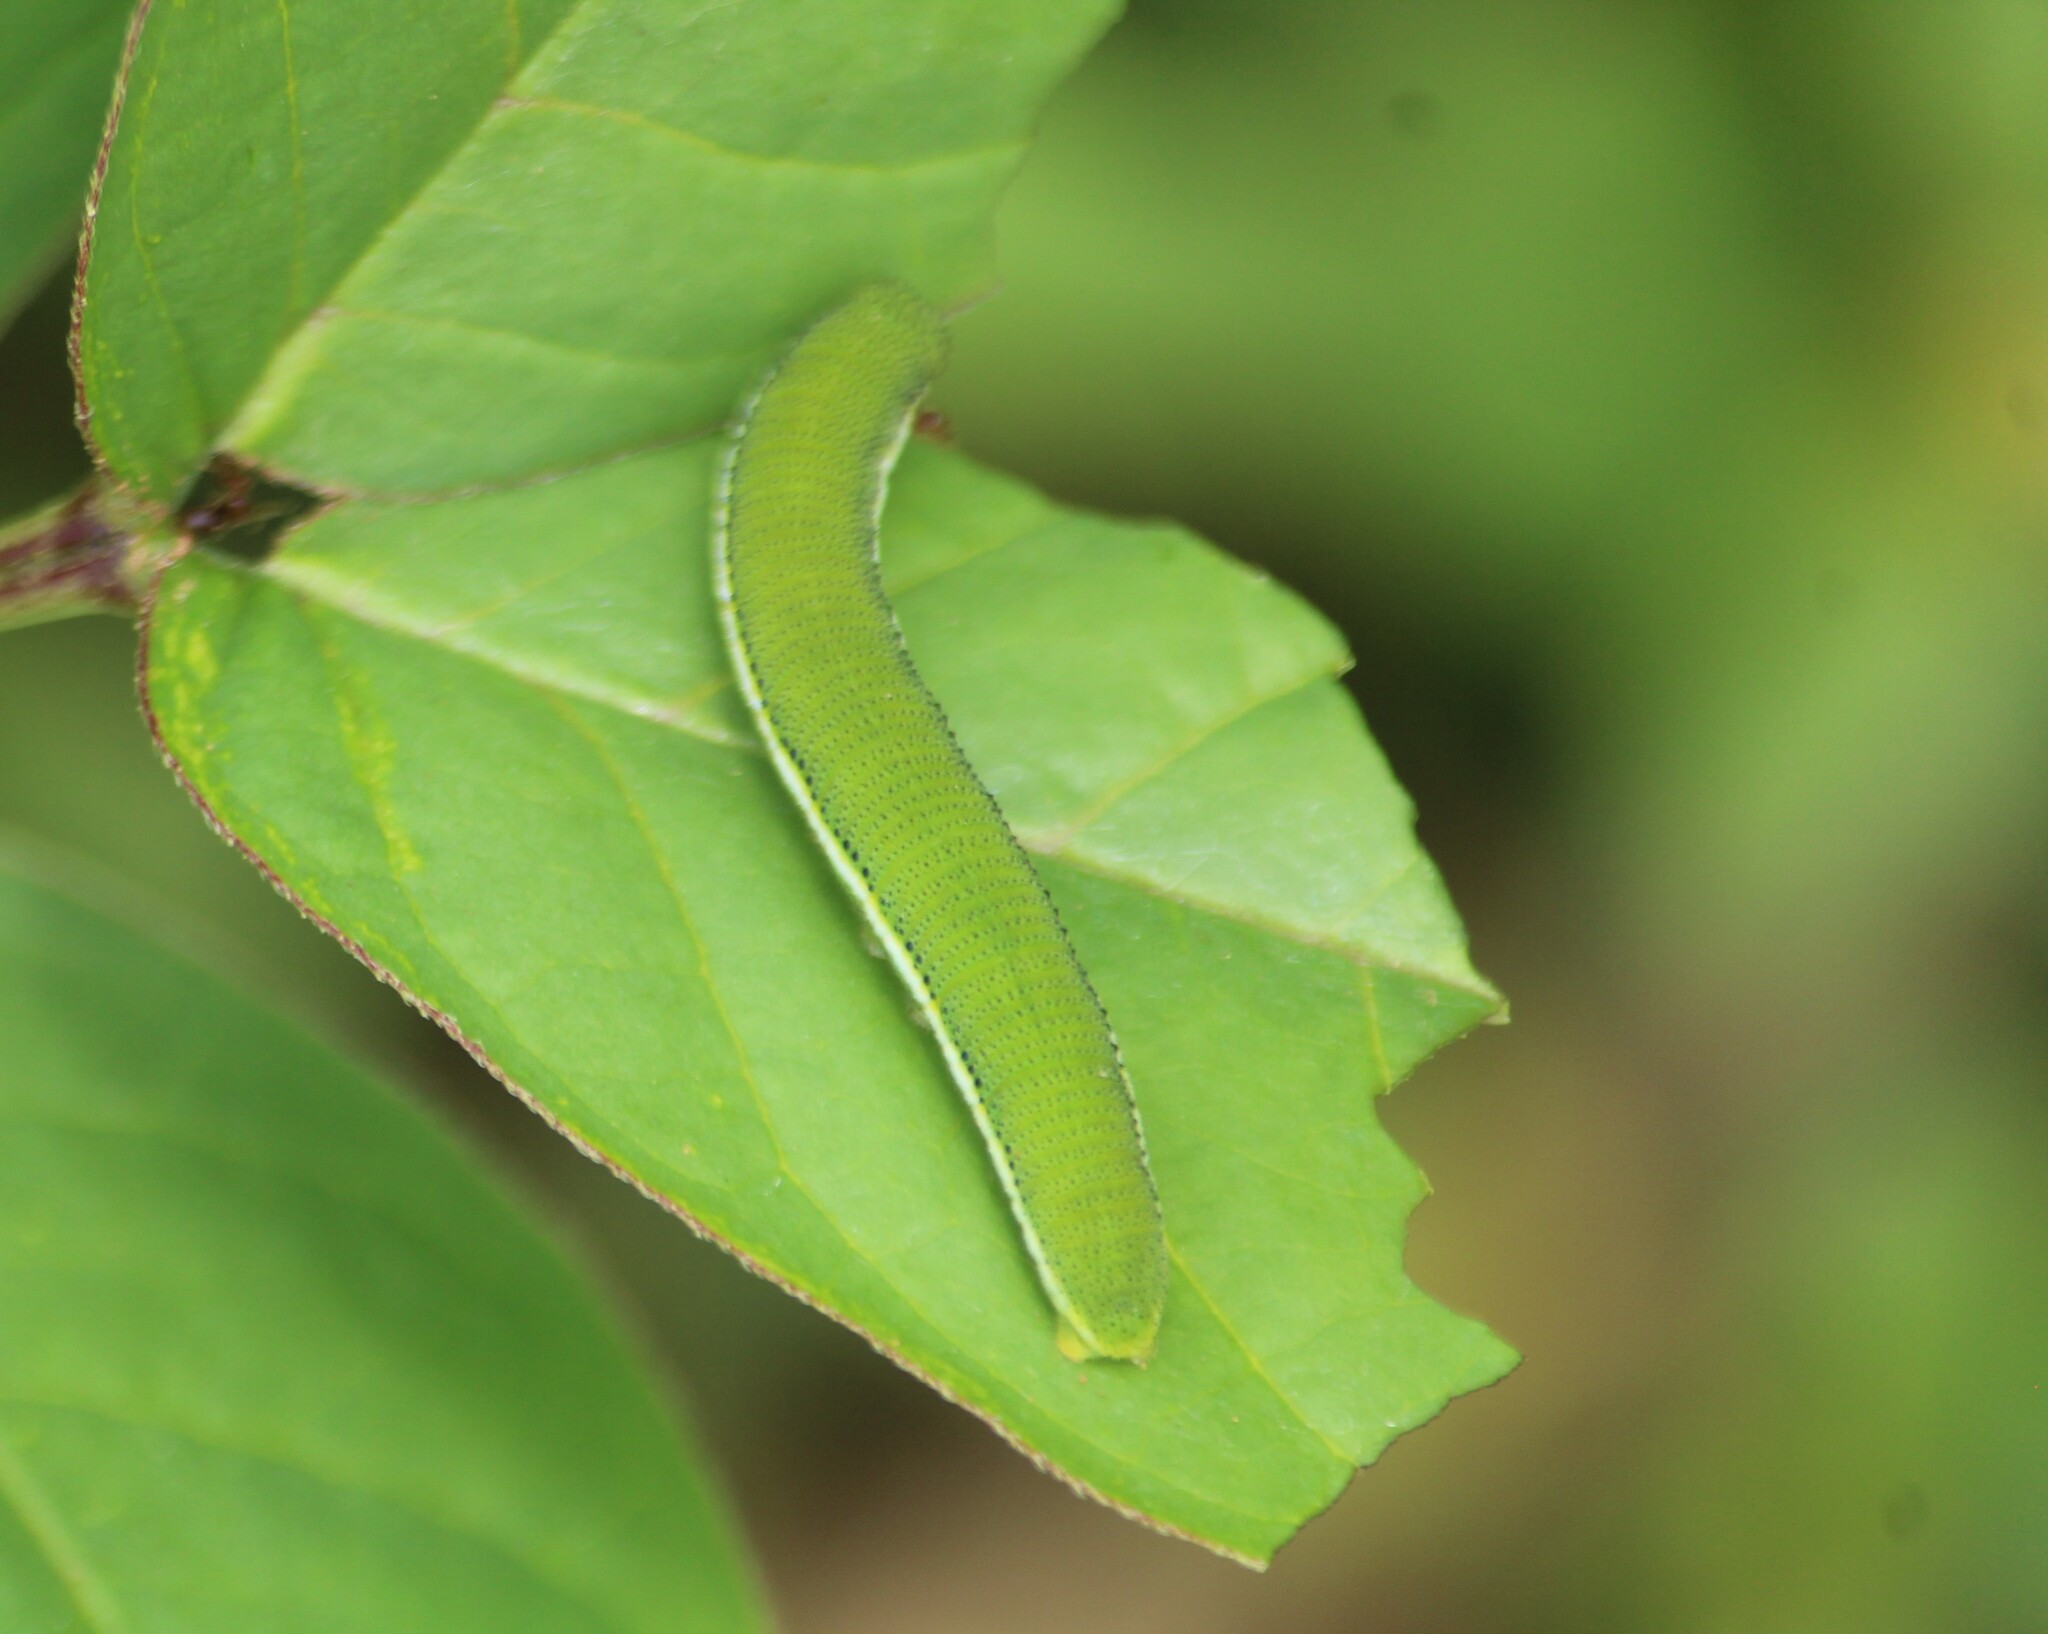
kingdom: Animalia
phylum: Arthropoda
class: Insecta
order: Lepidoptera
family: Pieridae
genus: Catopsilia
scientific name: Catopsilia pyranthe
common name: Mottled emigrant
